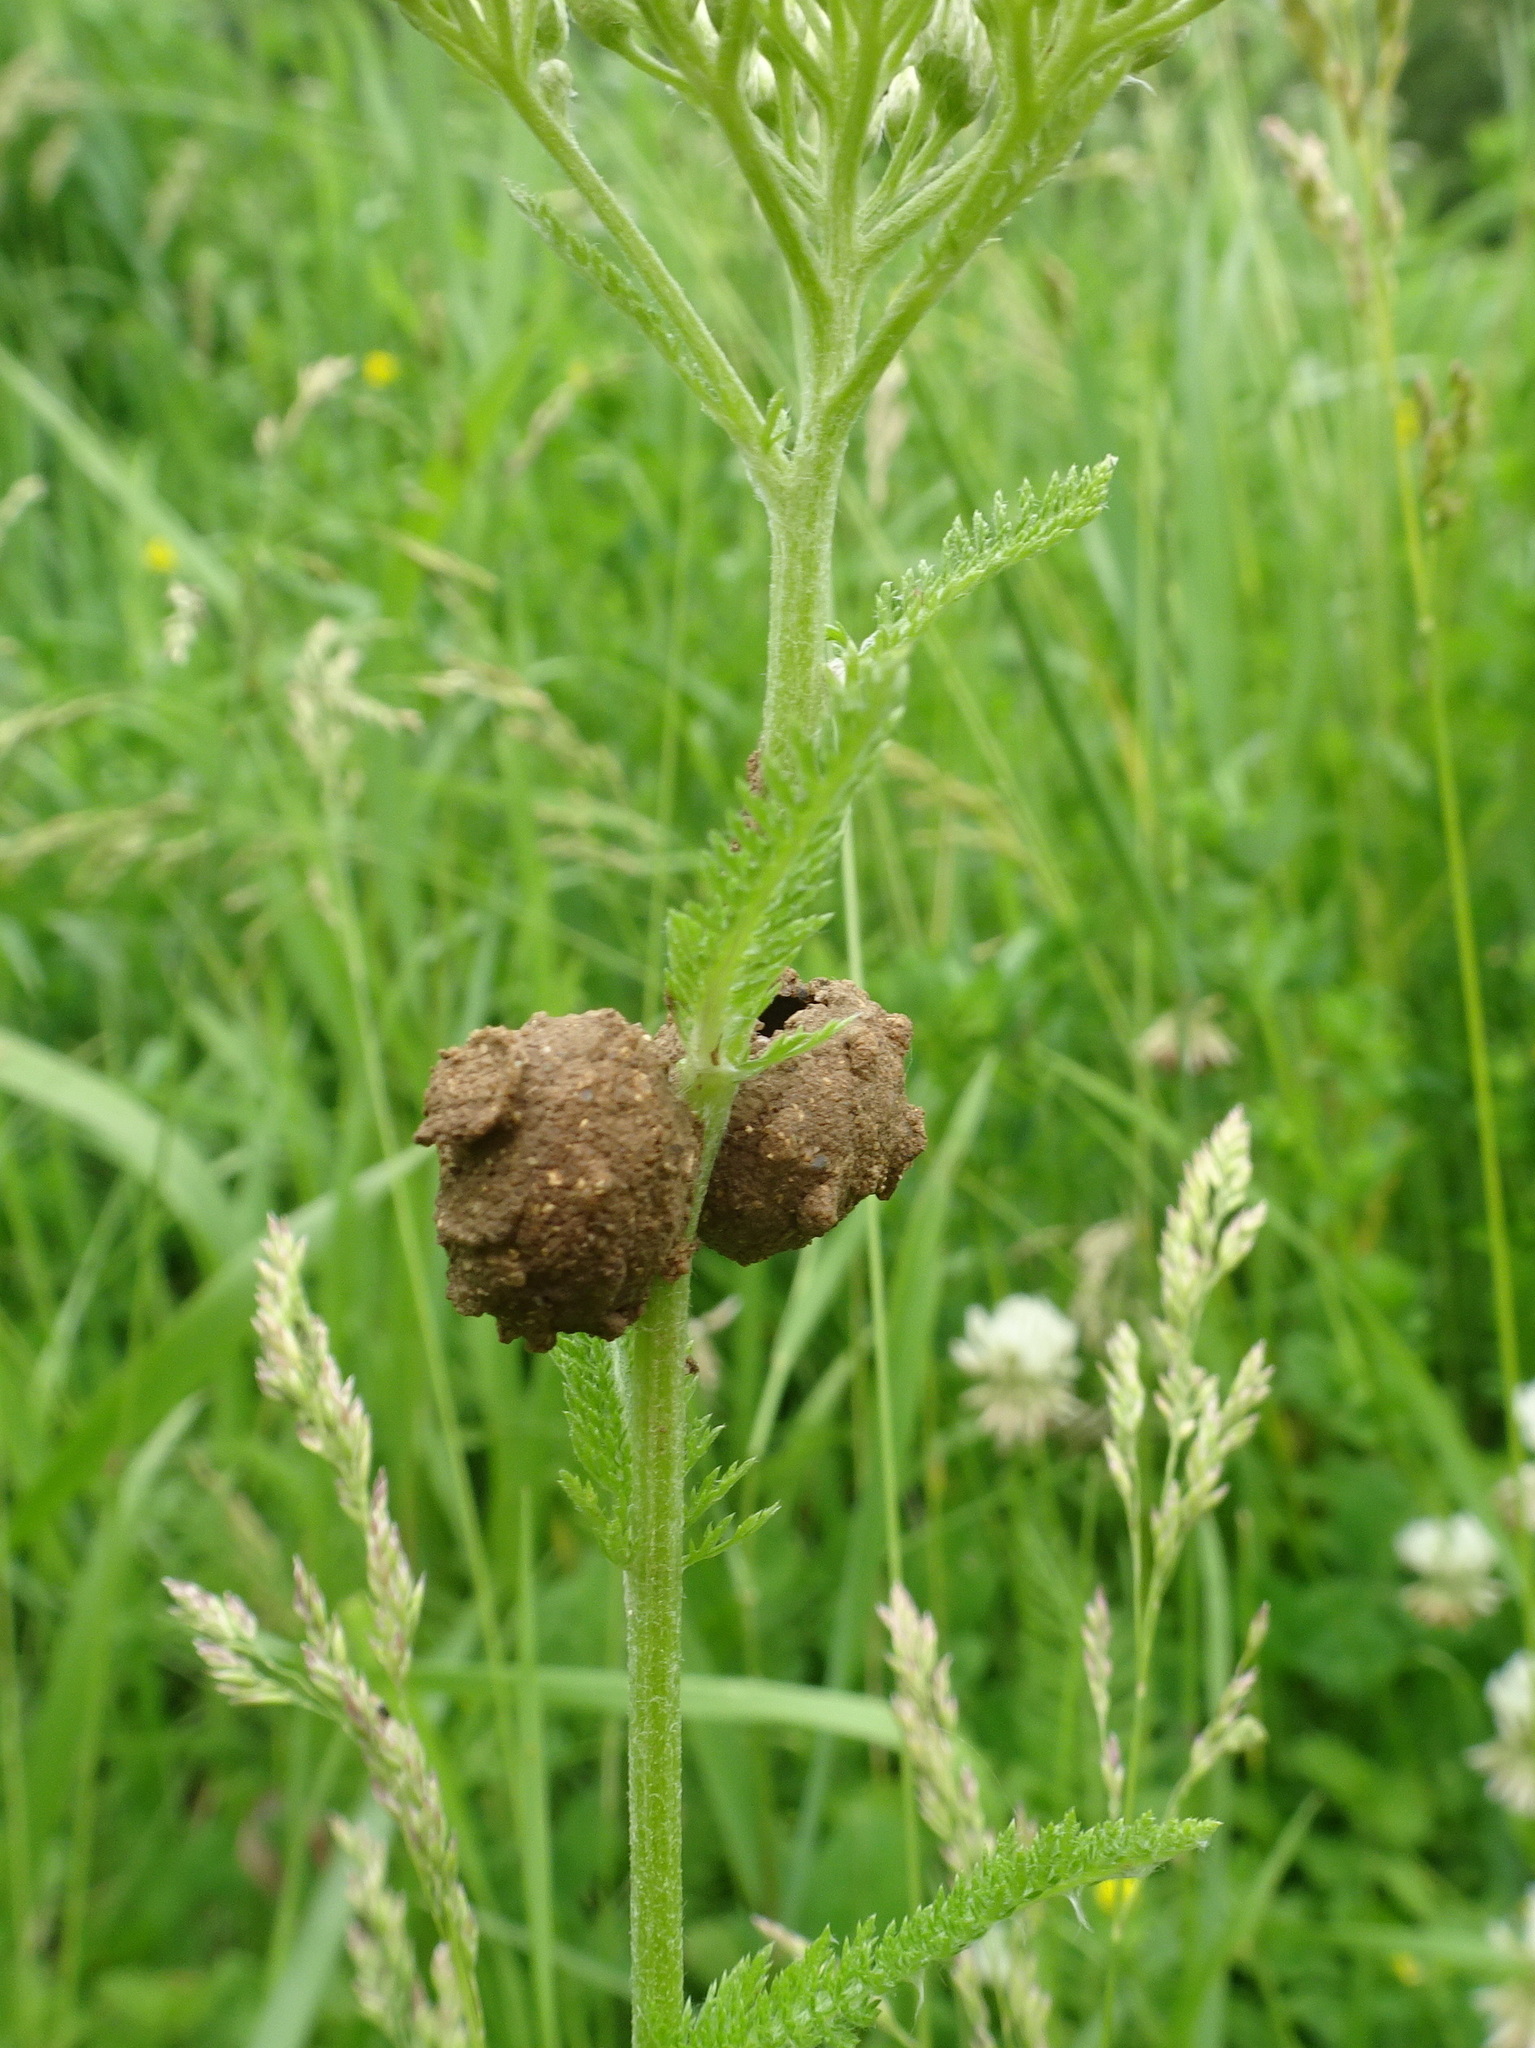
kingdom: Animalia
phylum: Arthropoda
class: Insecta
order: Hymenoptera
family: Vespidae
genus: Eumenes
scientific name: Eumenes
